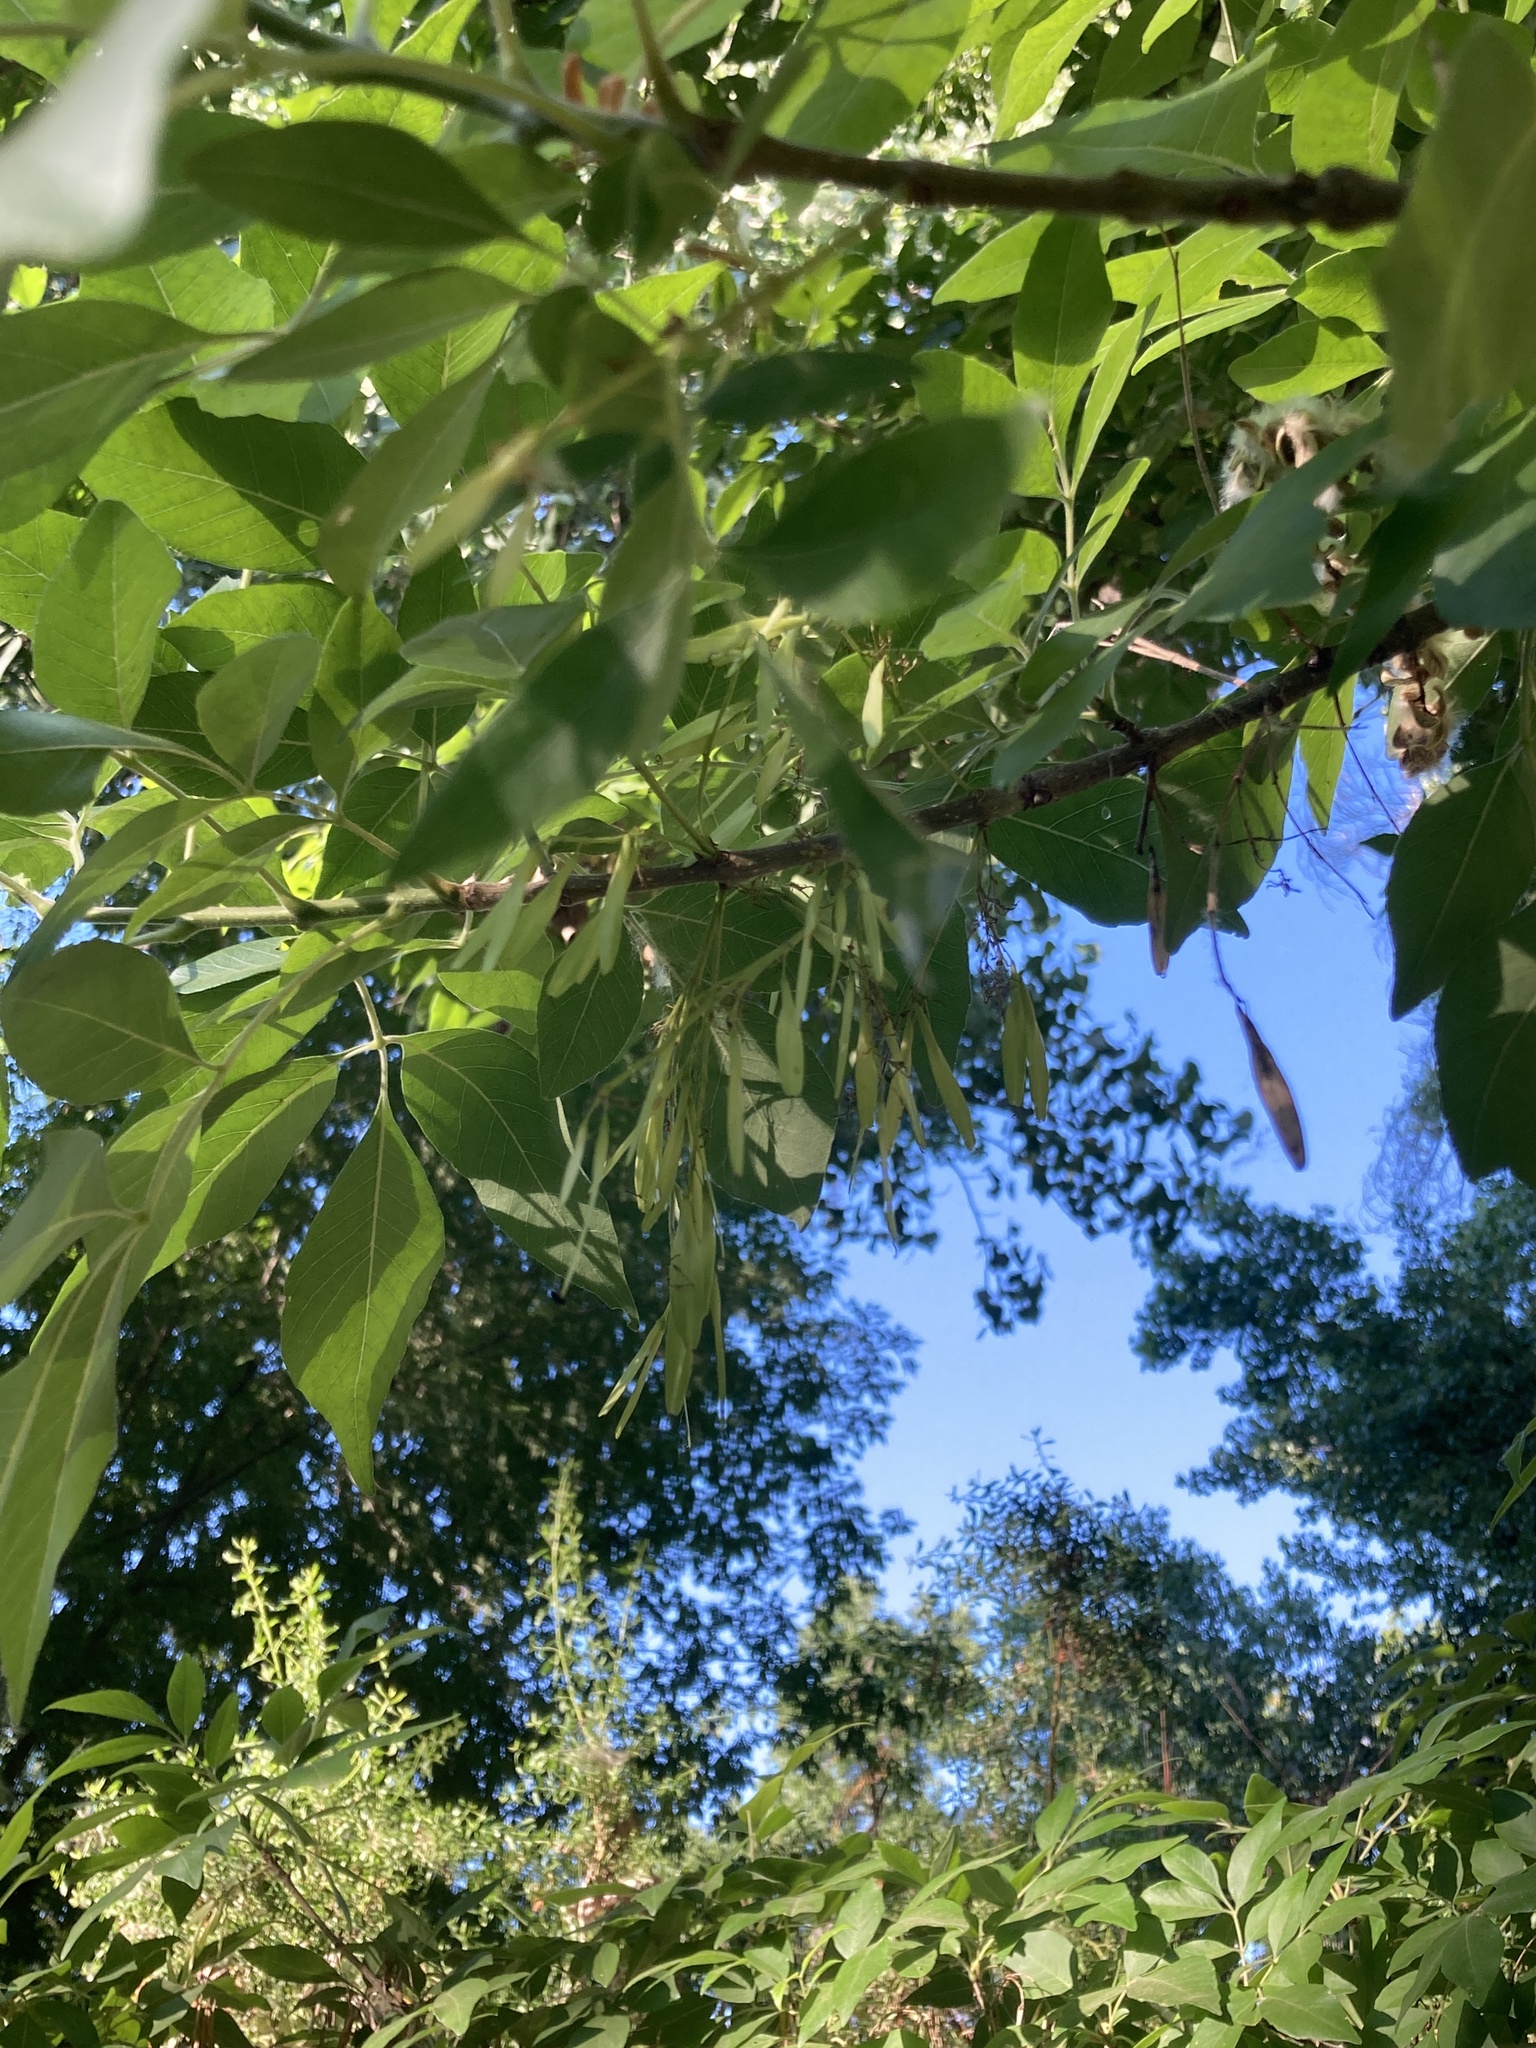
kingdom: Plantae
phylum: Tracheophyta
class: Magnoliopsida
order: Lamiales
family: Oleaceae
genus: Fraxinus
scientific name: Fraxinus velutina
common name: Arizon ash
